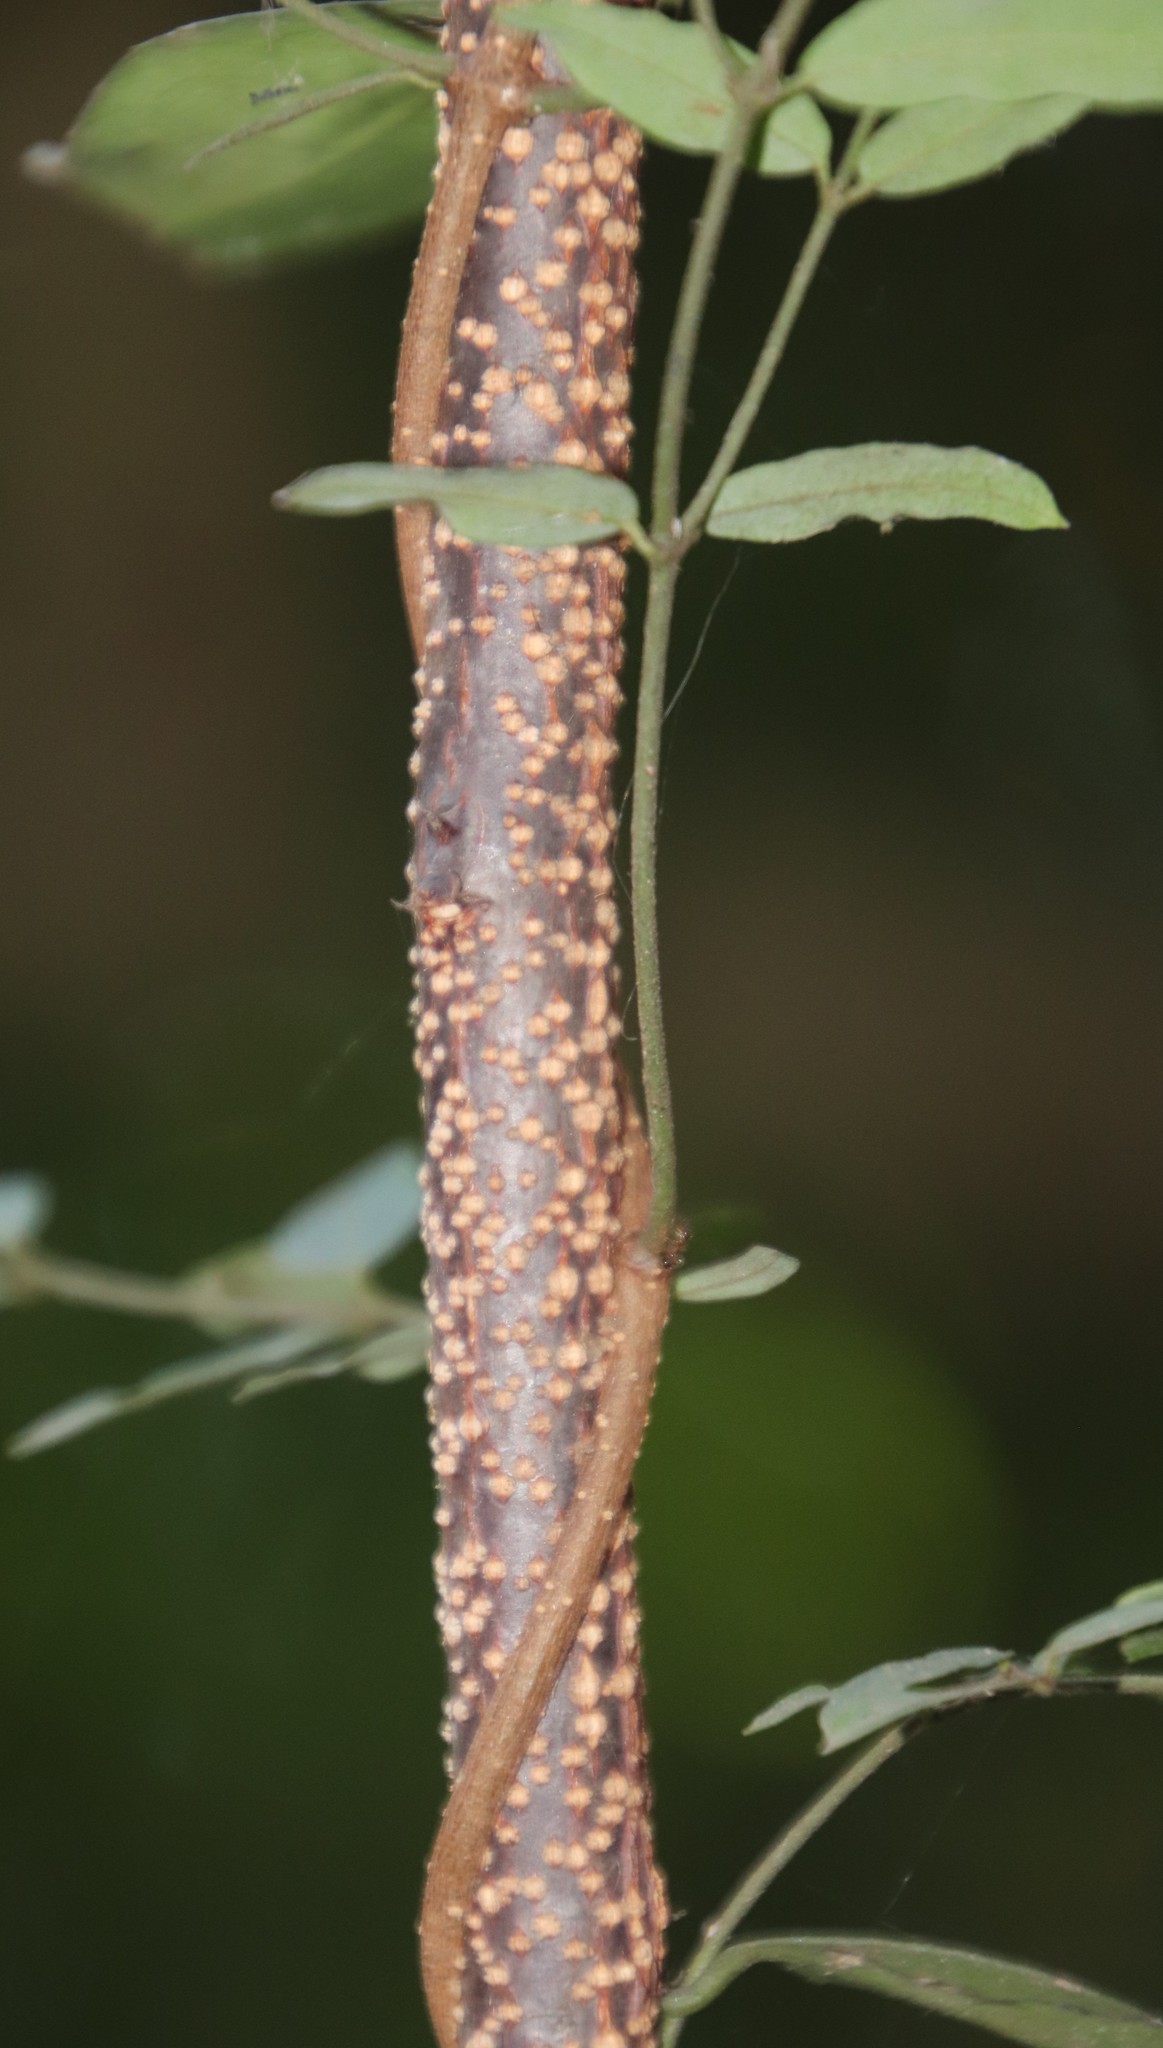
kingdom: Plantae
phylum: Tracheophyta
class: Magnoliopsida
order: Celastrales
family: Celastraceae
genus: Putterlickia
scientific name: Putterlickia verrucosa
